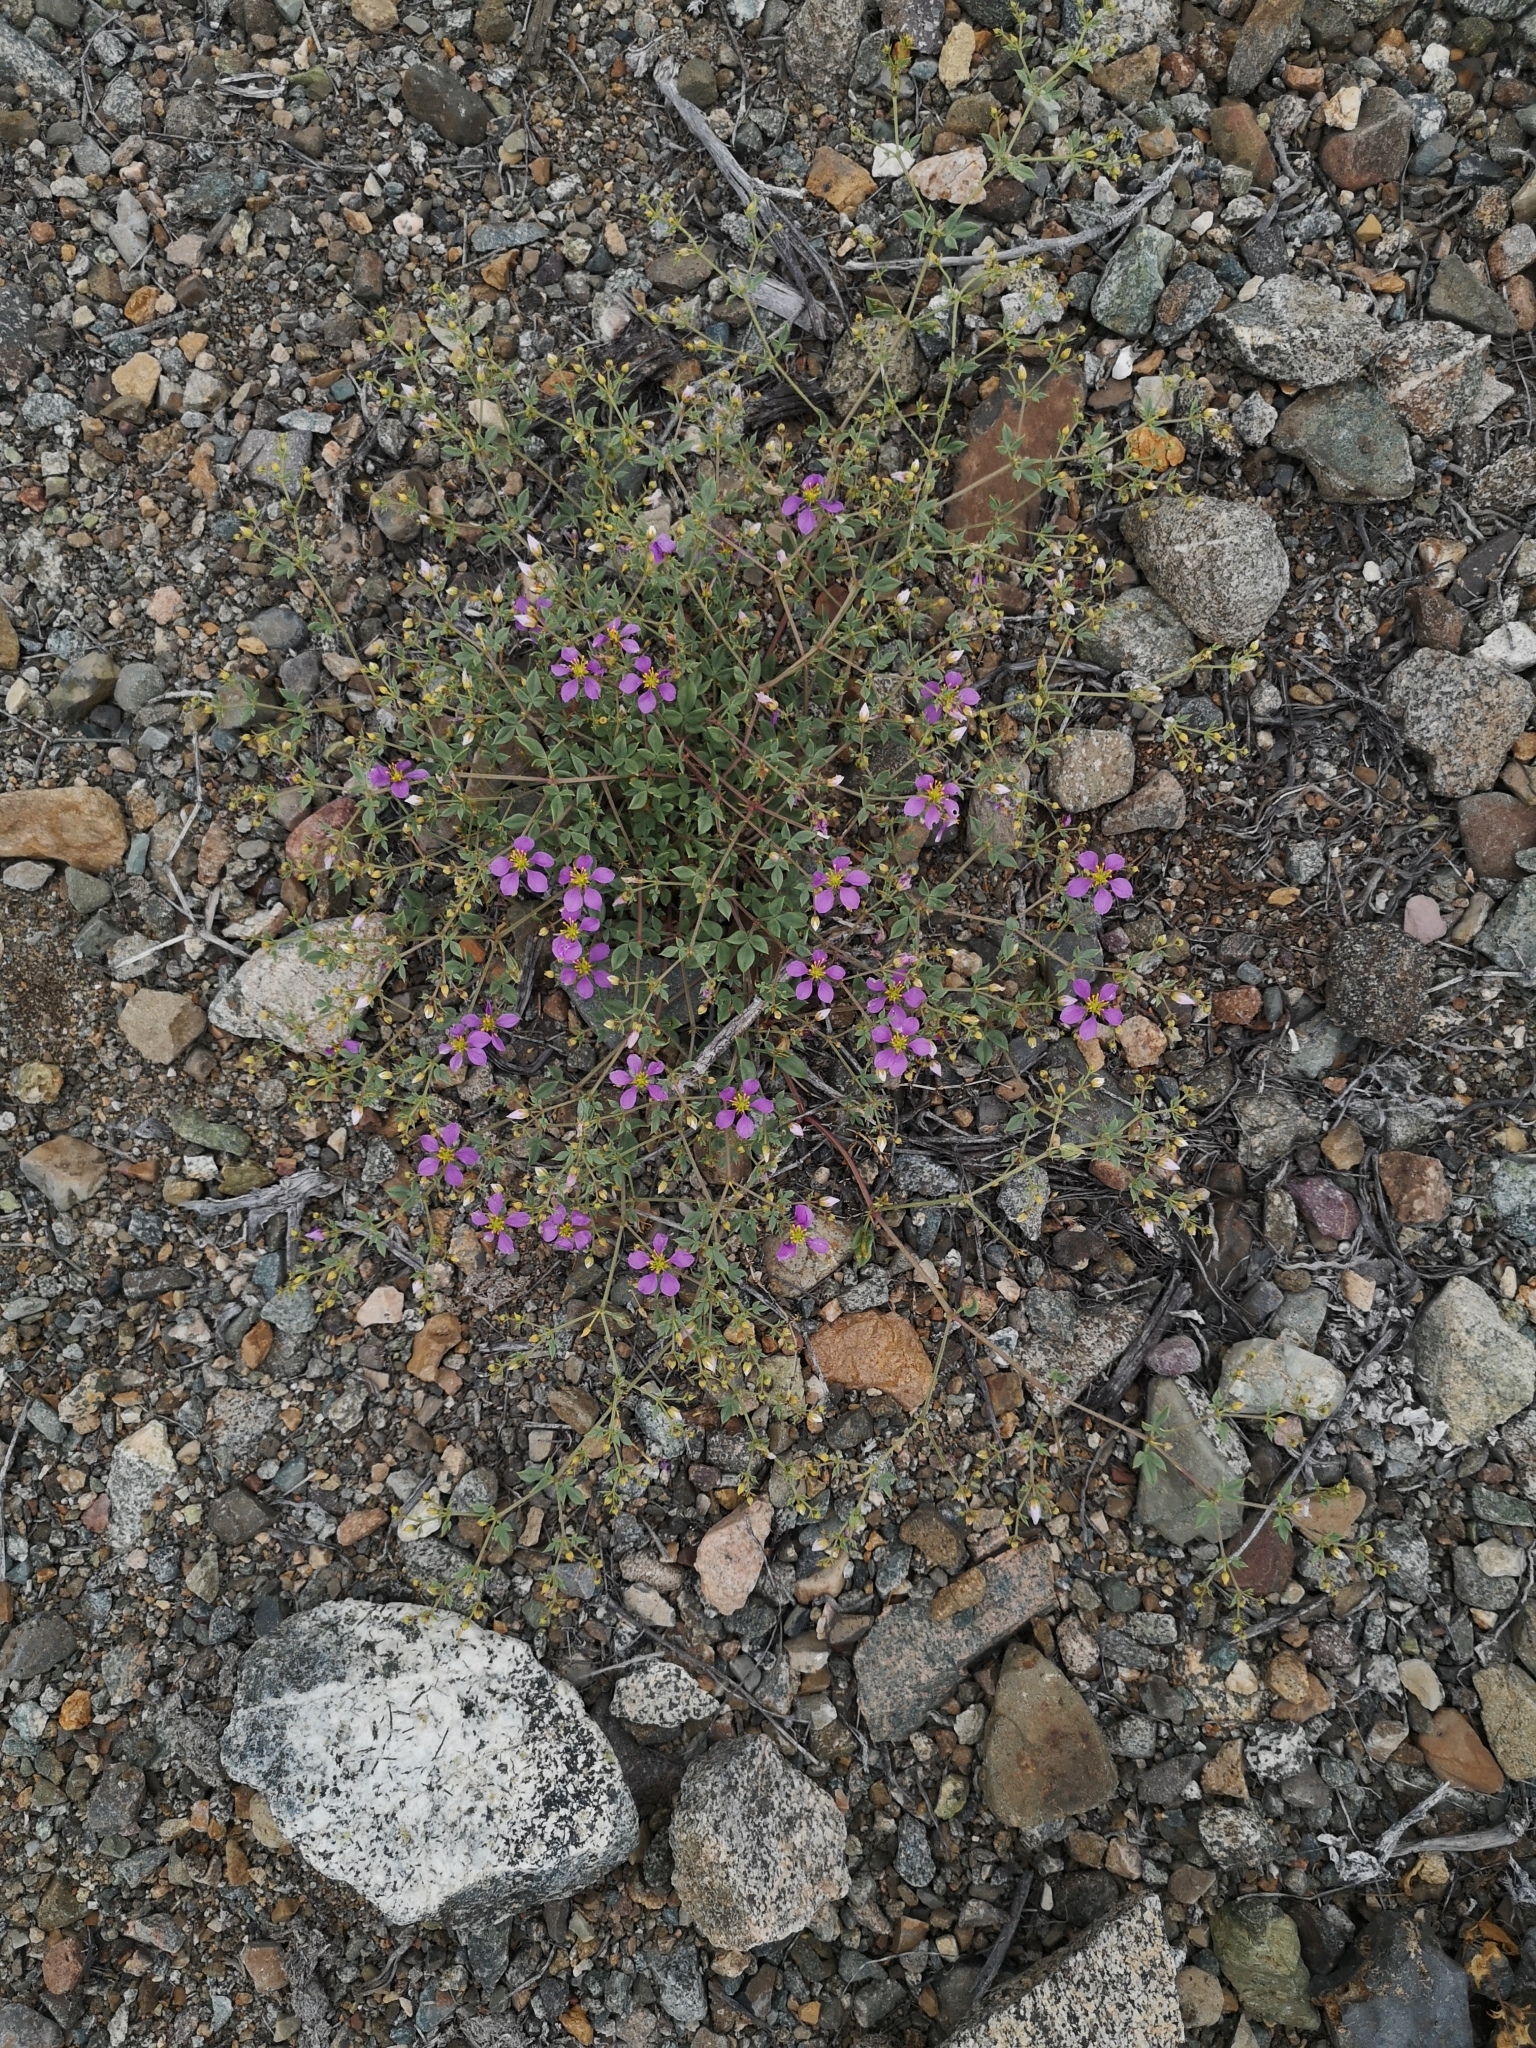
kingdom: Plantae
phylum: Tracheophyta
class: Magnoliopsida
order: Zygophyllales
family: Zygophyllaceae
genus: Fagonia
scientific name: Fagonia chilensis
